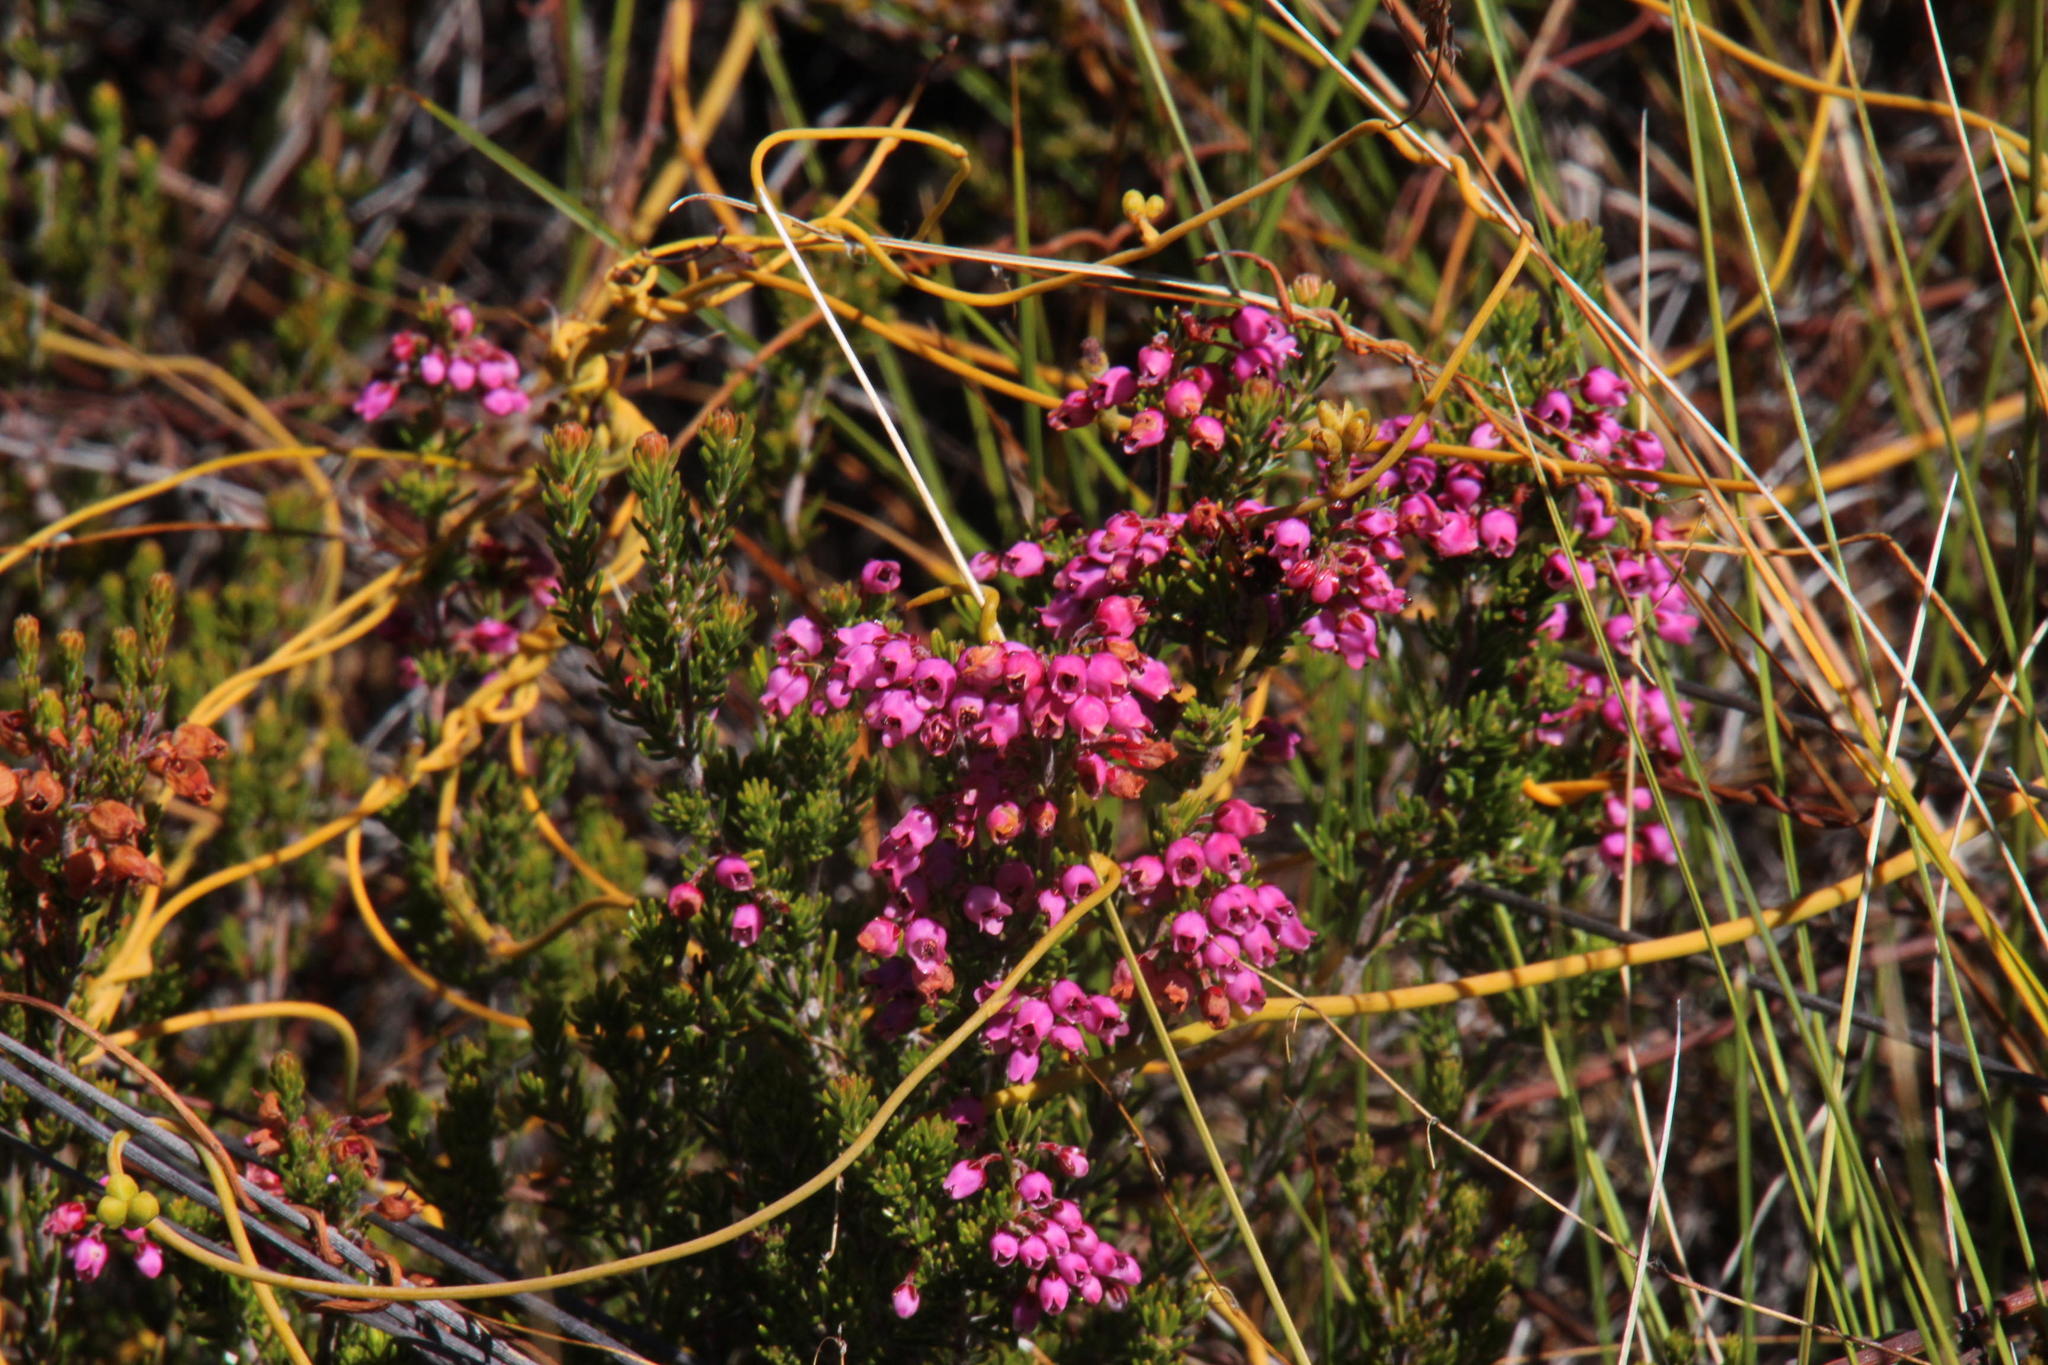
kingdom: Plantae
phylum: Tracheophyta
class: Magnoliopsida
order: Ericales
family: Ericaceae
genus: Erica
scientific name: Erica tenella
